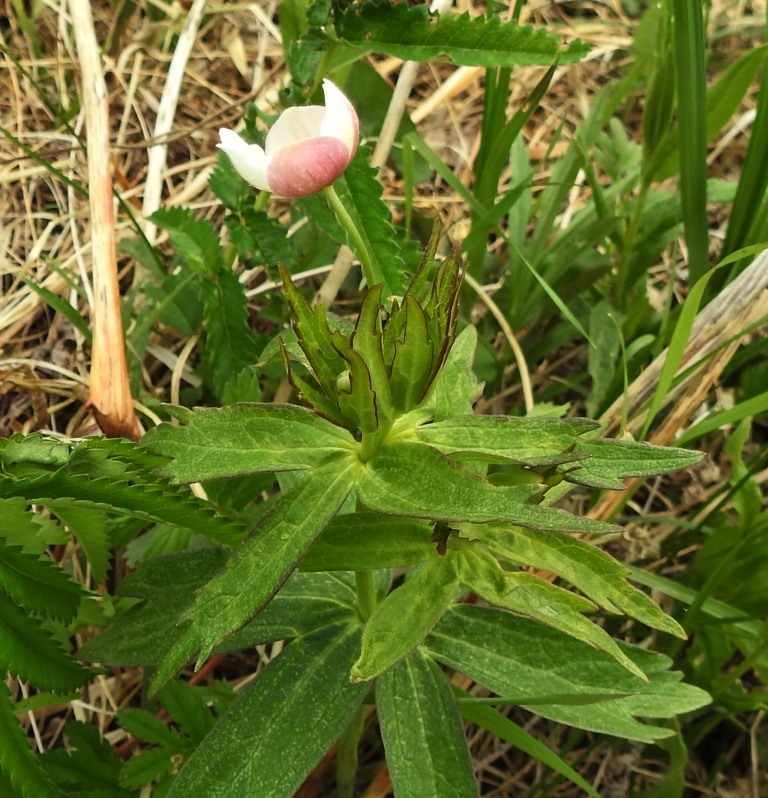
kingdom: Plantae
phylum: Tracheophyta
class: Magnoliopsida
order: Ranunculales
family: Ranunculaceae
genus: Anemonastrum
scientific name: Anemonastrum dichotomum
